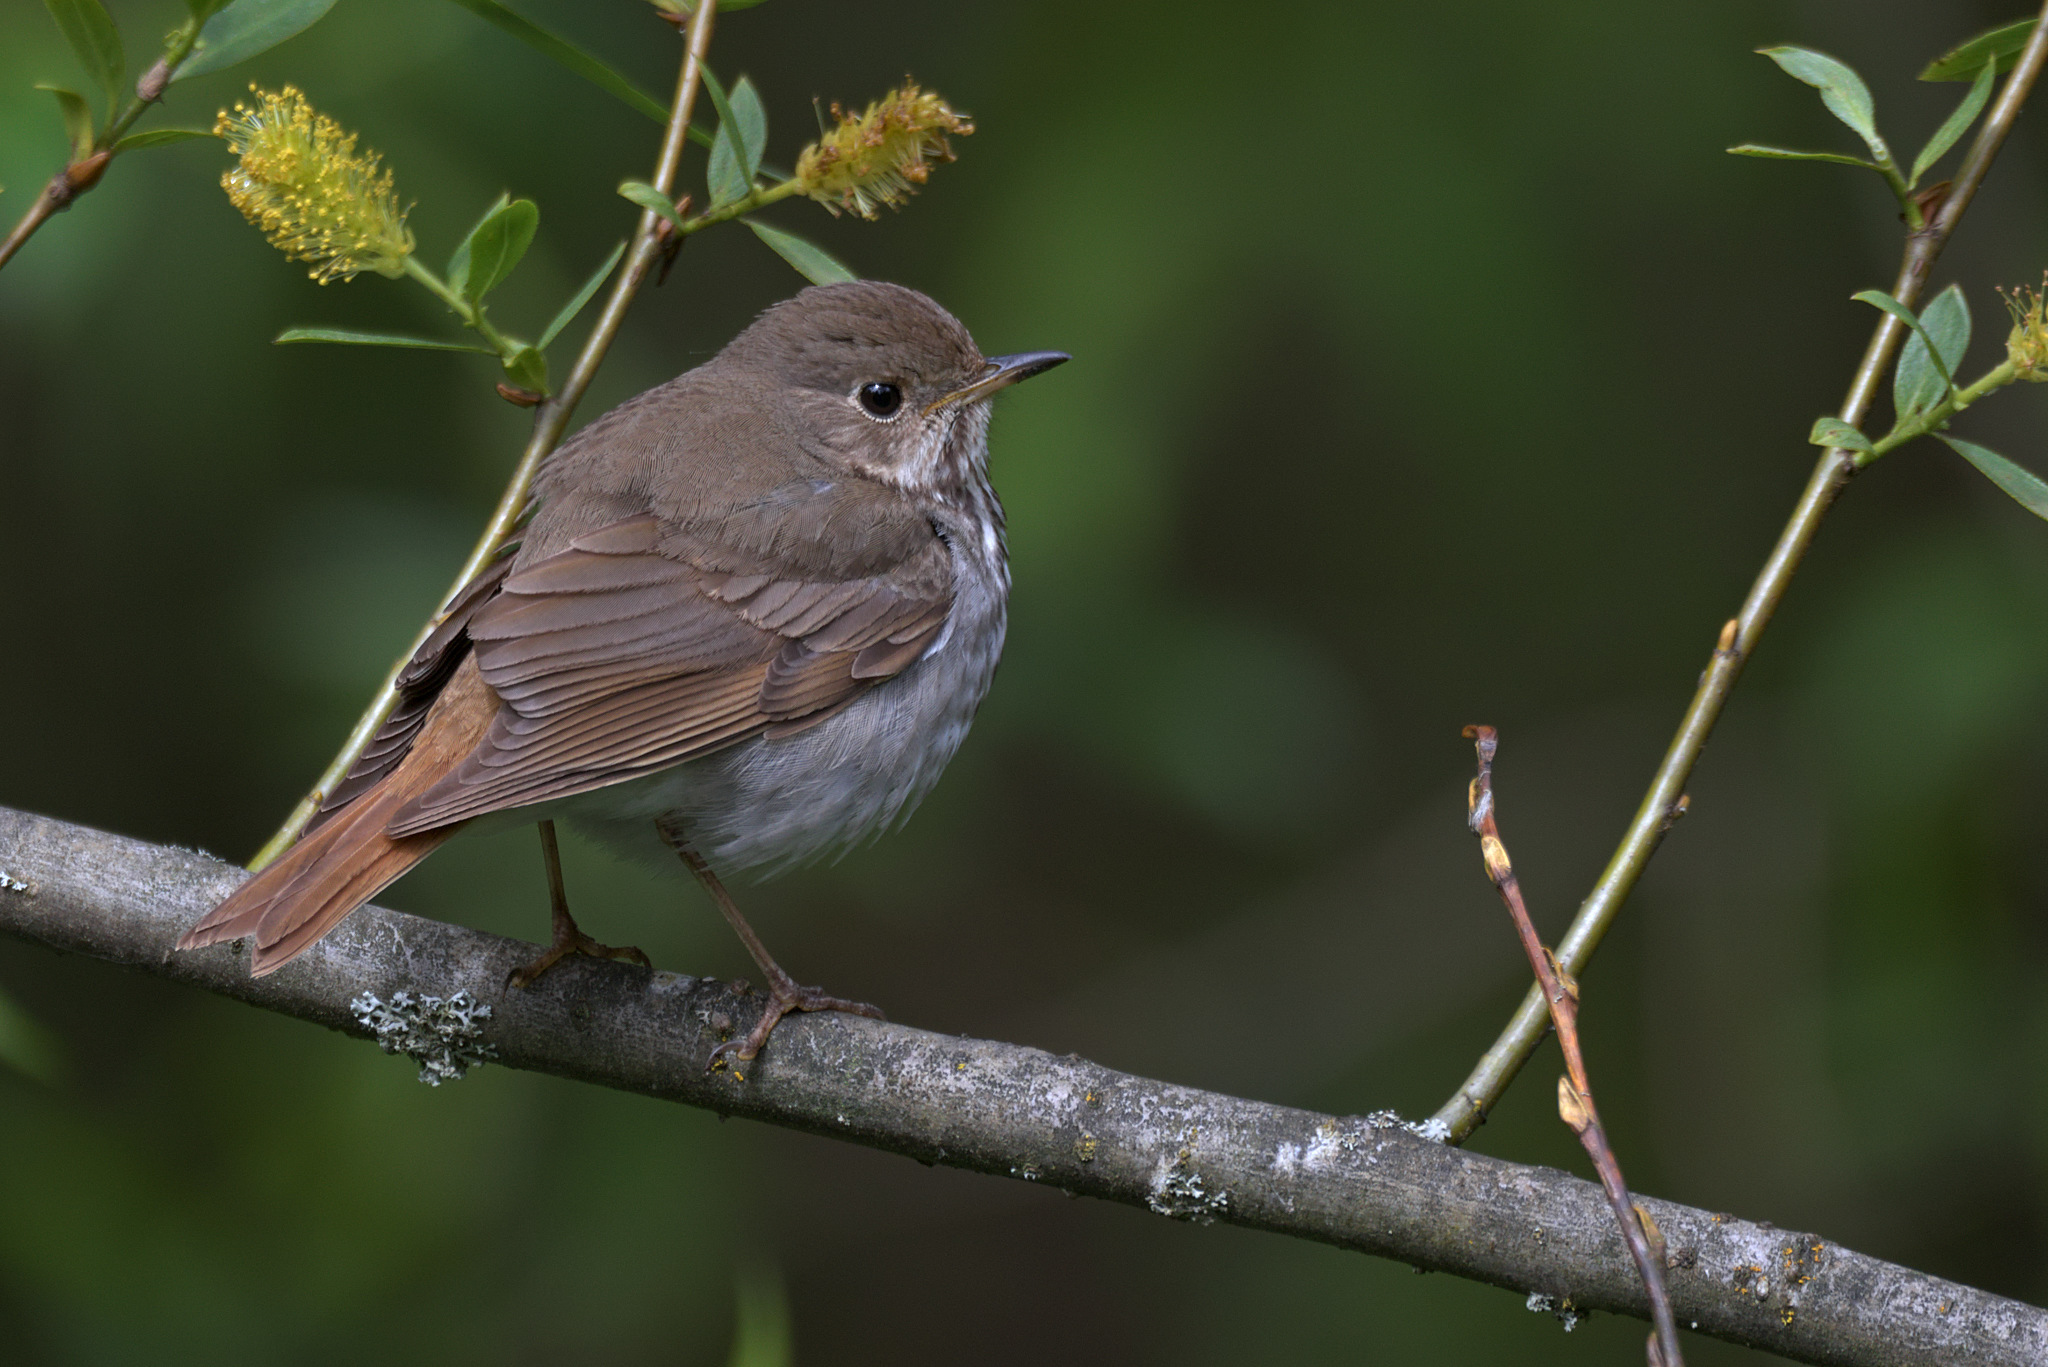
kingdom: Animalia
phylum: Chordata
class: Aves
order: Passeriformes
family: Turdidae
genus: Catharus
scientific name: Catharus guttatus
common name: Hermit thrush
